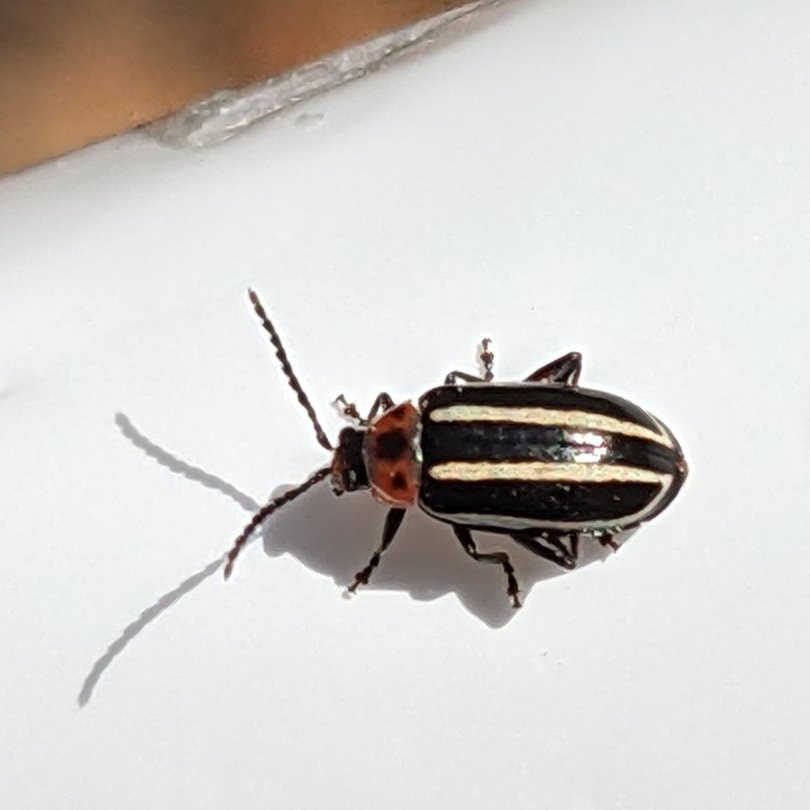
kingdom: Animalia
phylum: Arthropoda
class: Insecta
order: Coleoptera
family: Chrysomelidae
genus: Disonycha
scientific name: Disonycha glabrata
